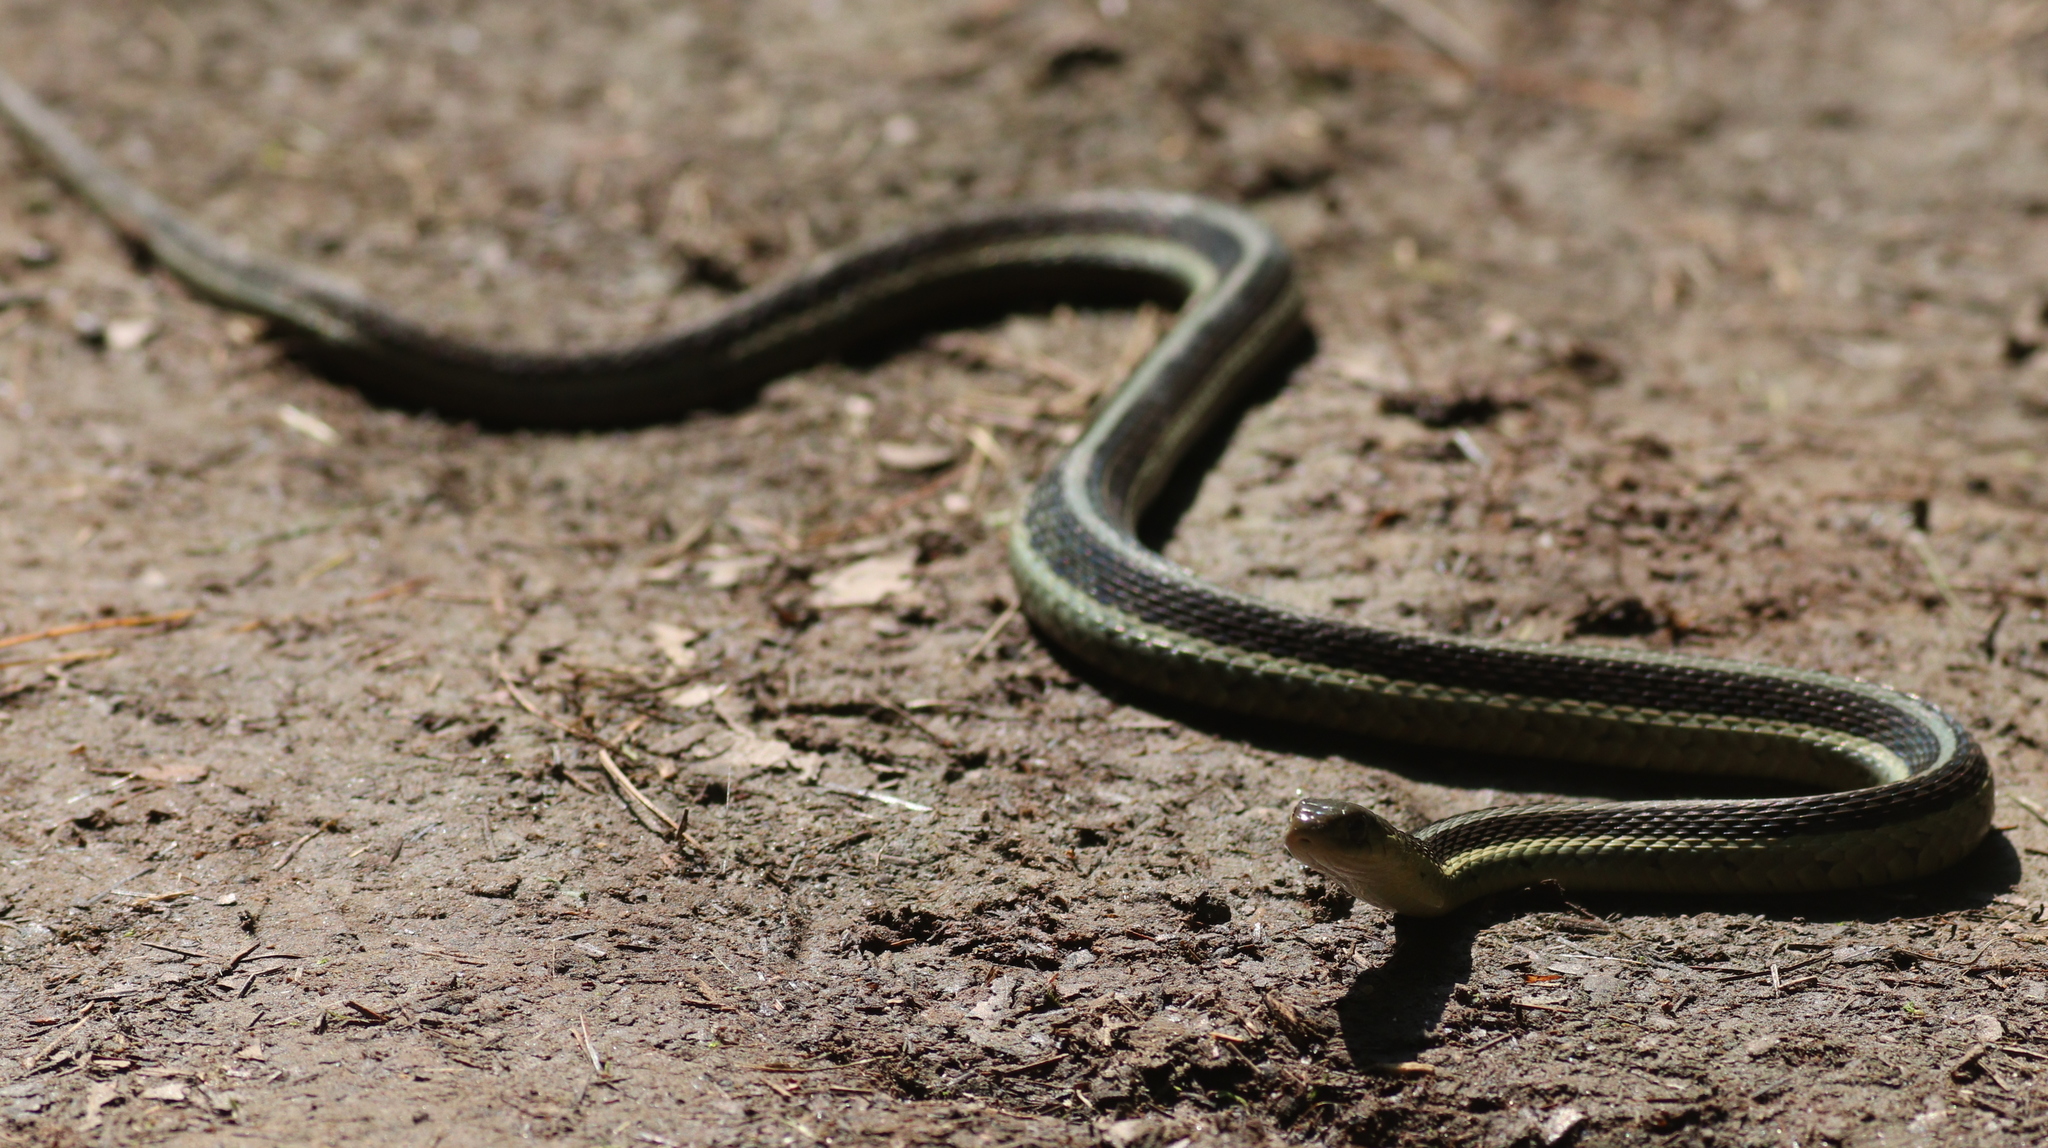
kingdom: Animalia
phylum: Chordata
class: Squamata
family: Colubridae
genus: Thamnophis
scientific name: Thamnophis sirtalis
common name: Common garter snake
